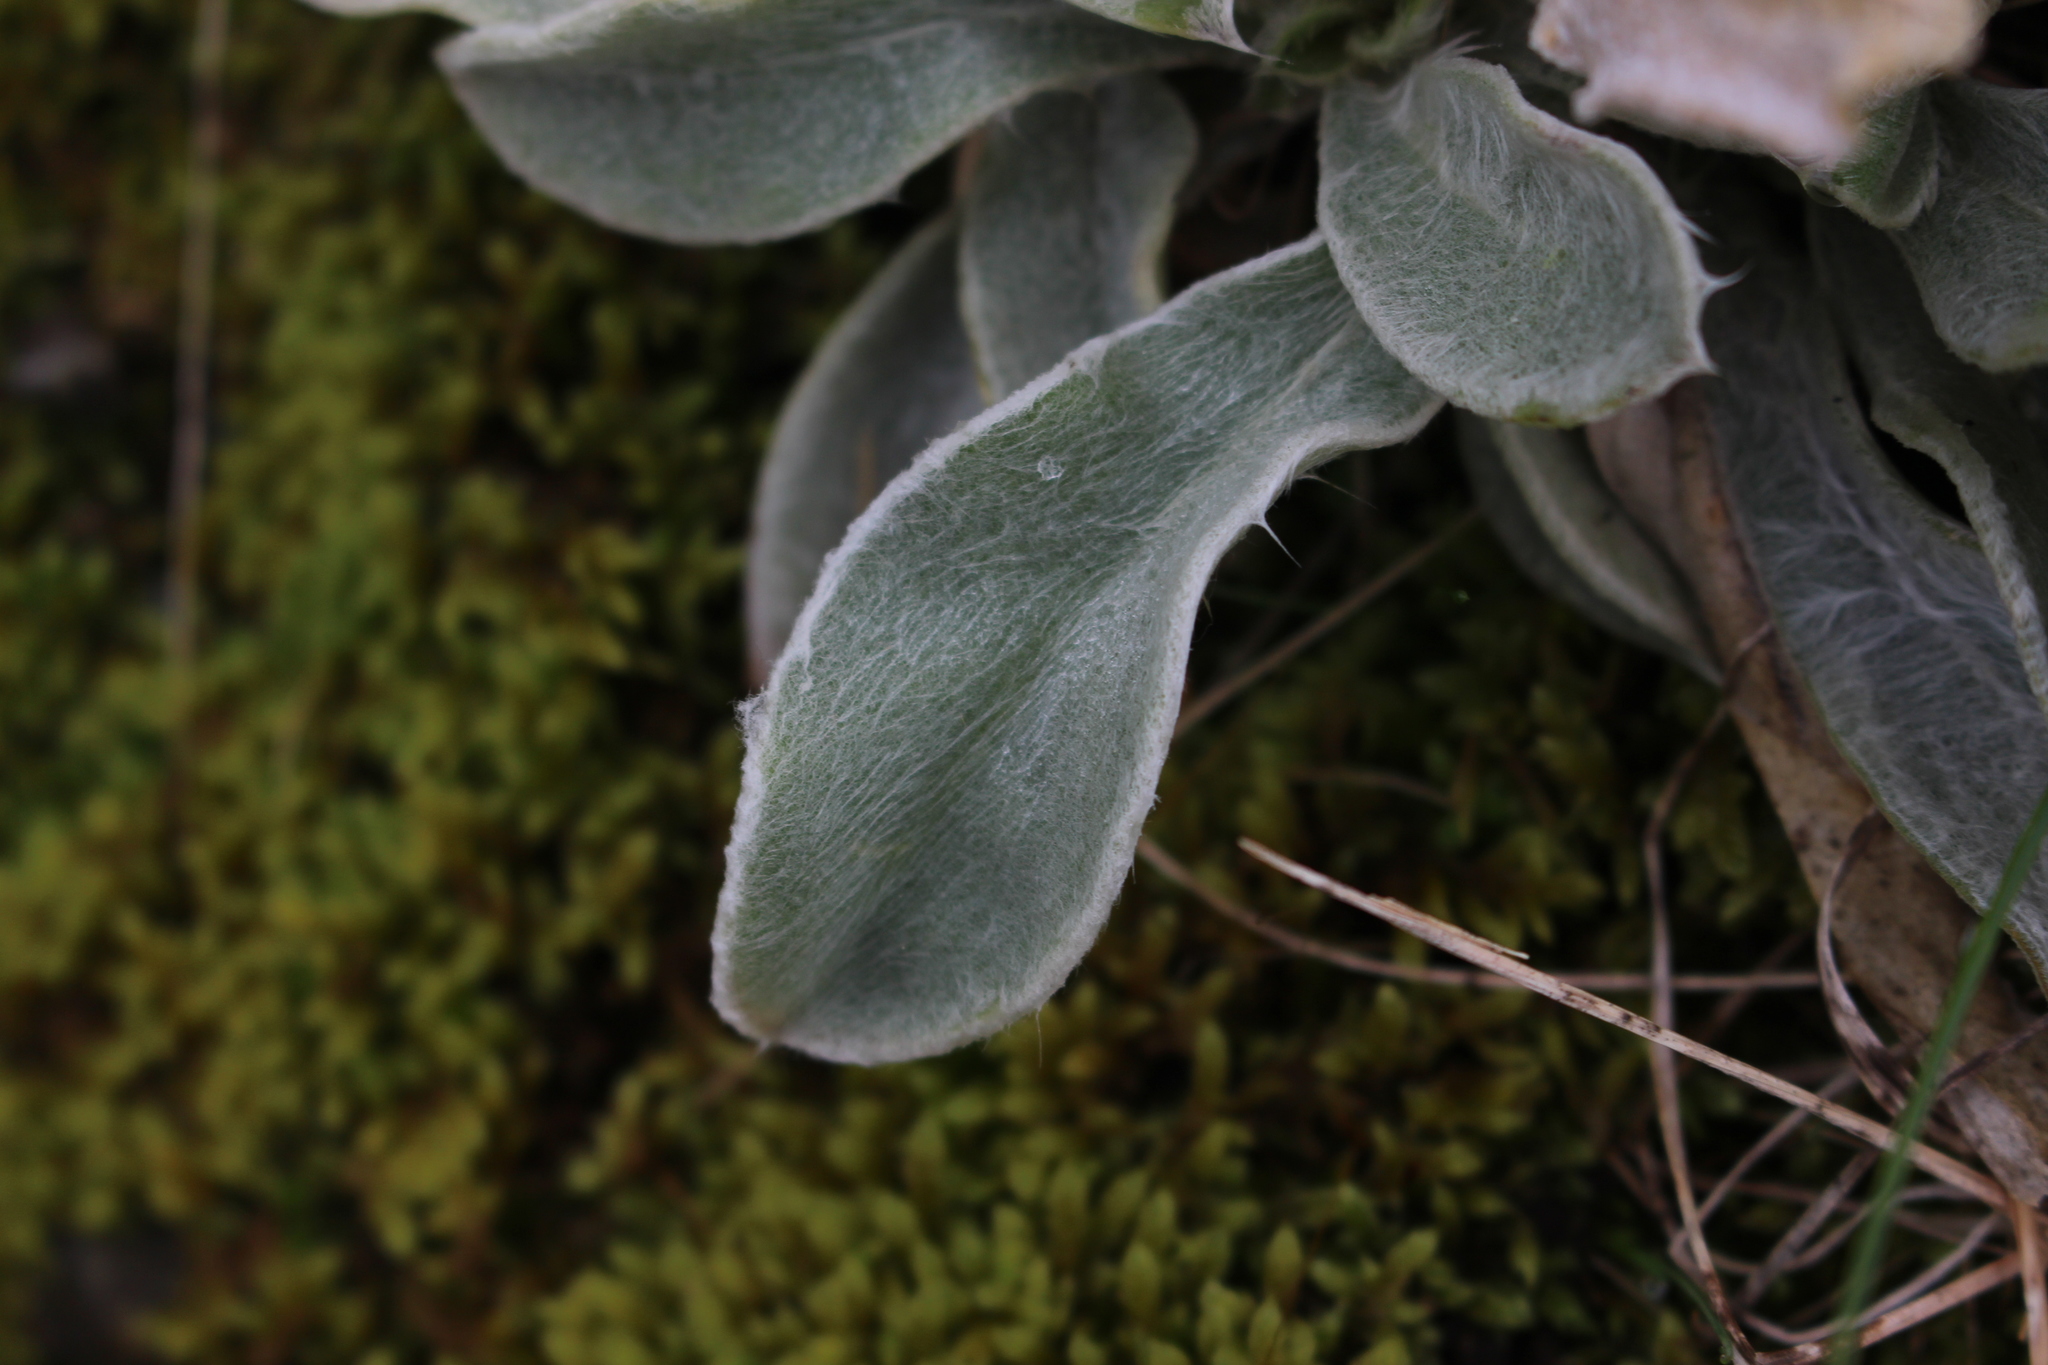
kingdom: Plantae
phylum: Tracheophyta
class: Magnoliopsida
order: Caryophyllales
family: Caryophyllaceae
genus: Silene
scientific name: Silene coronaria
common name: Rose campion
